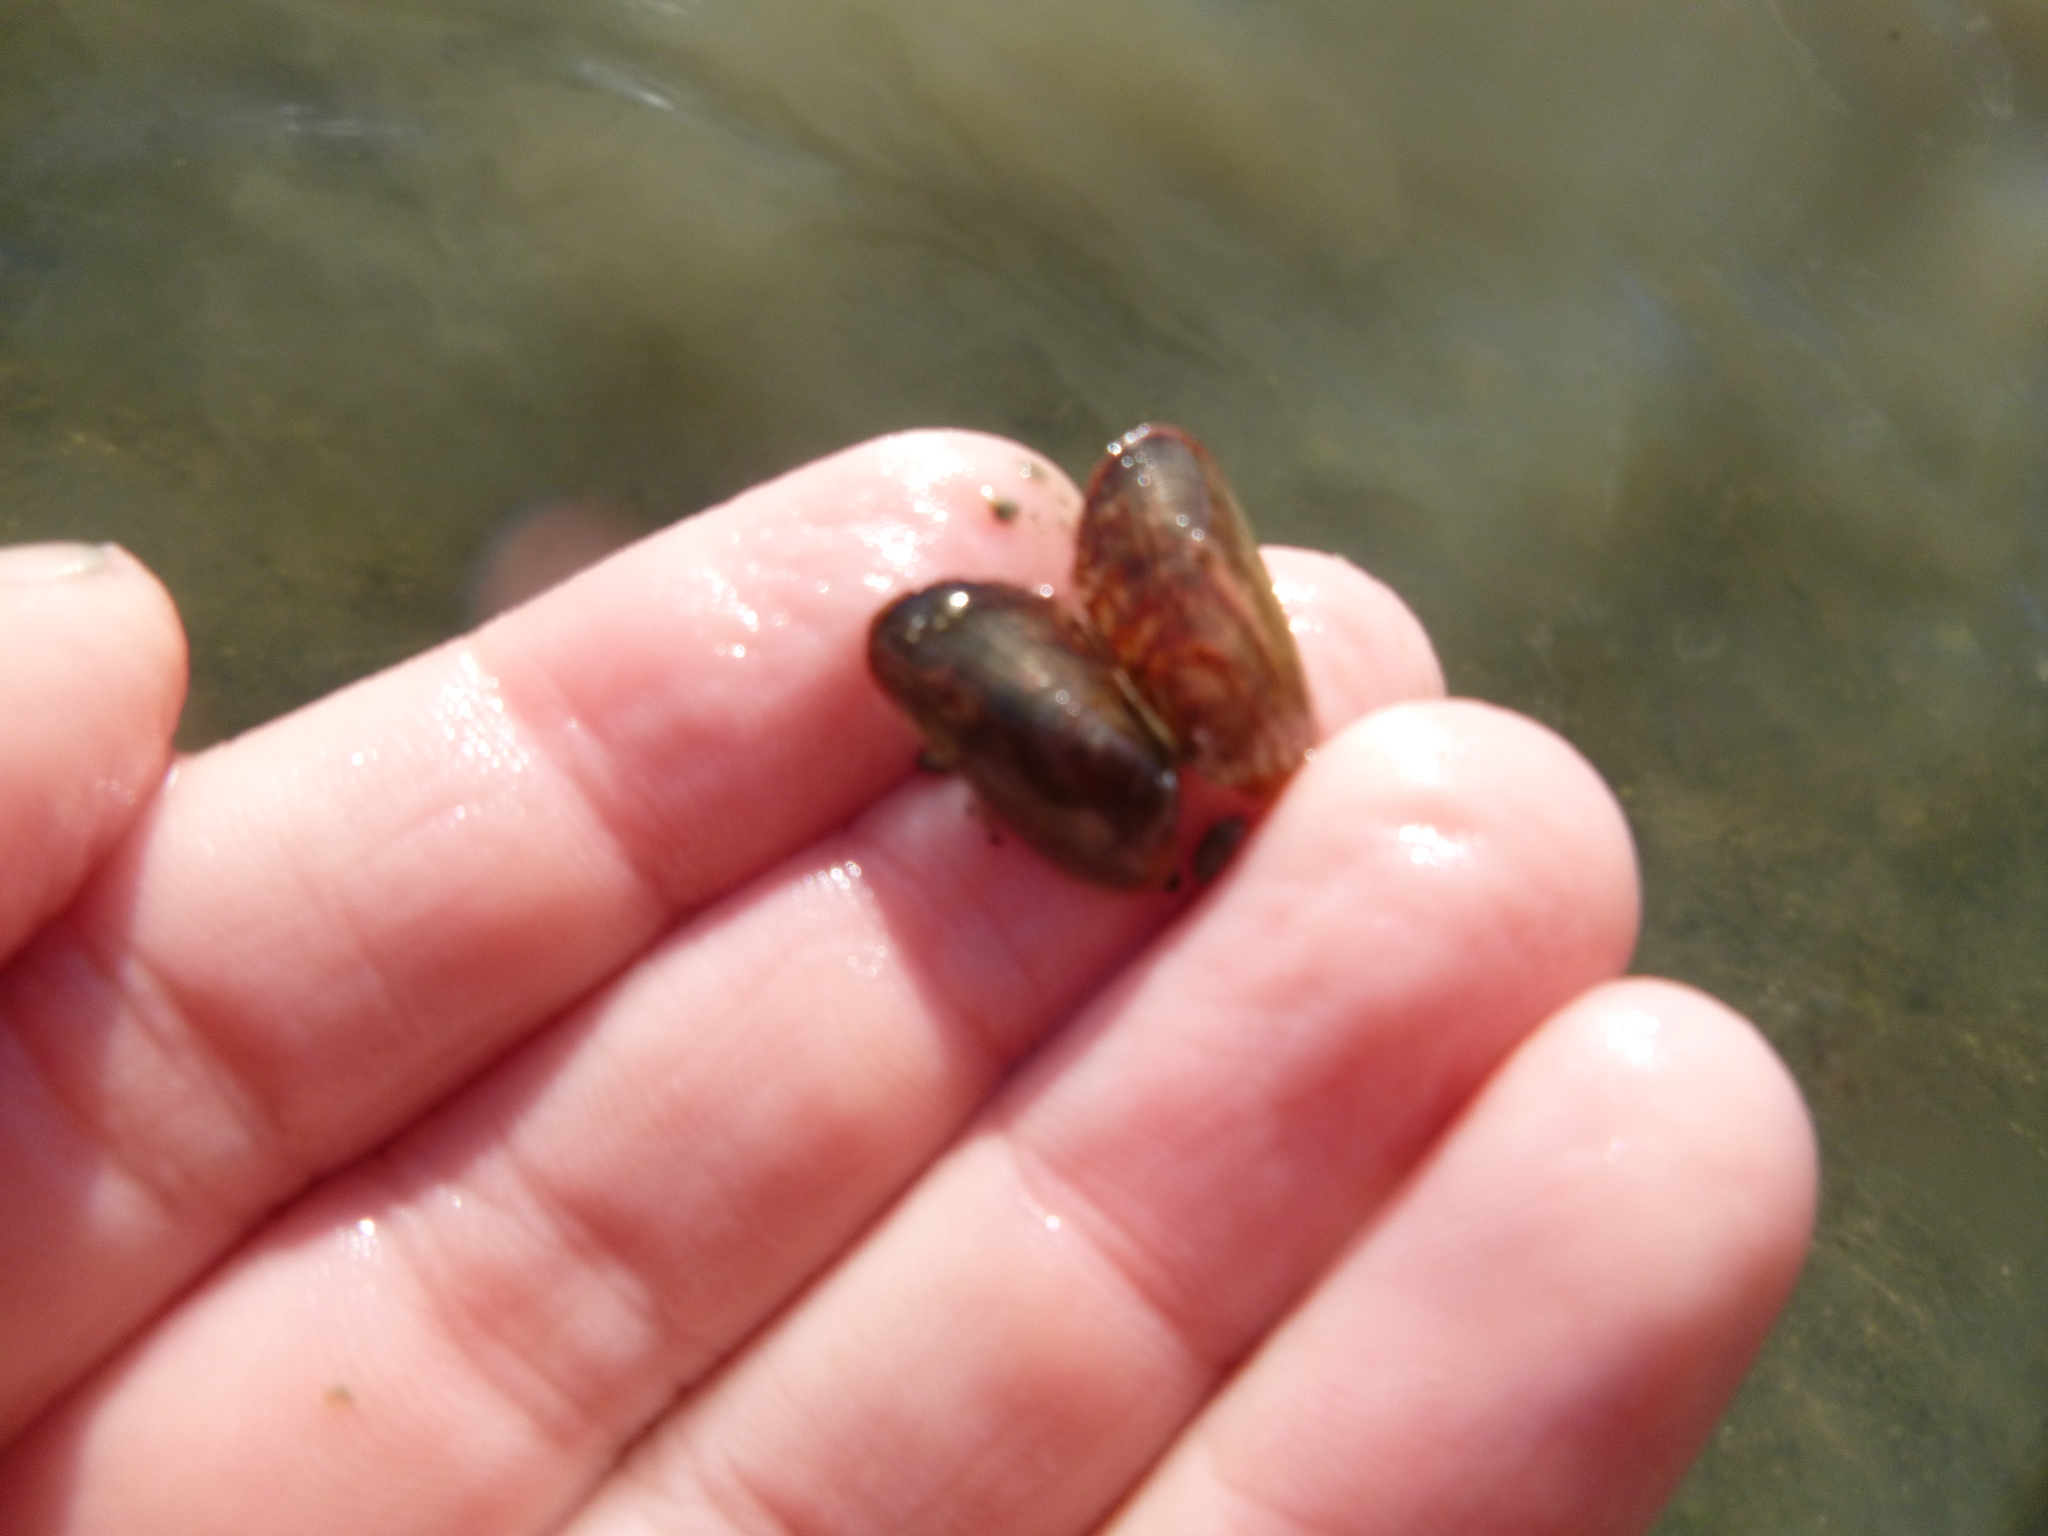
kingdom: Animalia
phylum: Mollusca
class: Bivalvia
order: Mytilida
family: Mytilidae
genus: Arcuatula
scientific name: Arcuatula senhousia
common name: Asian mussel
